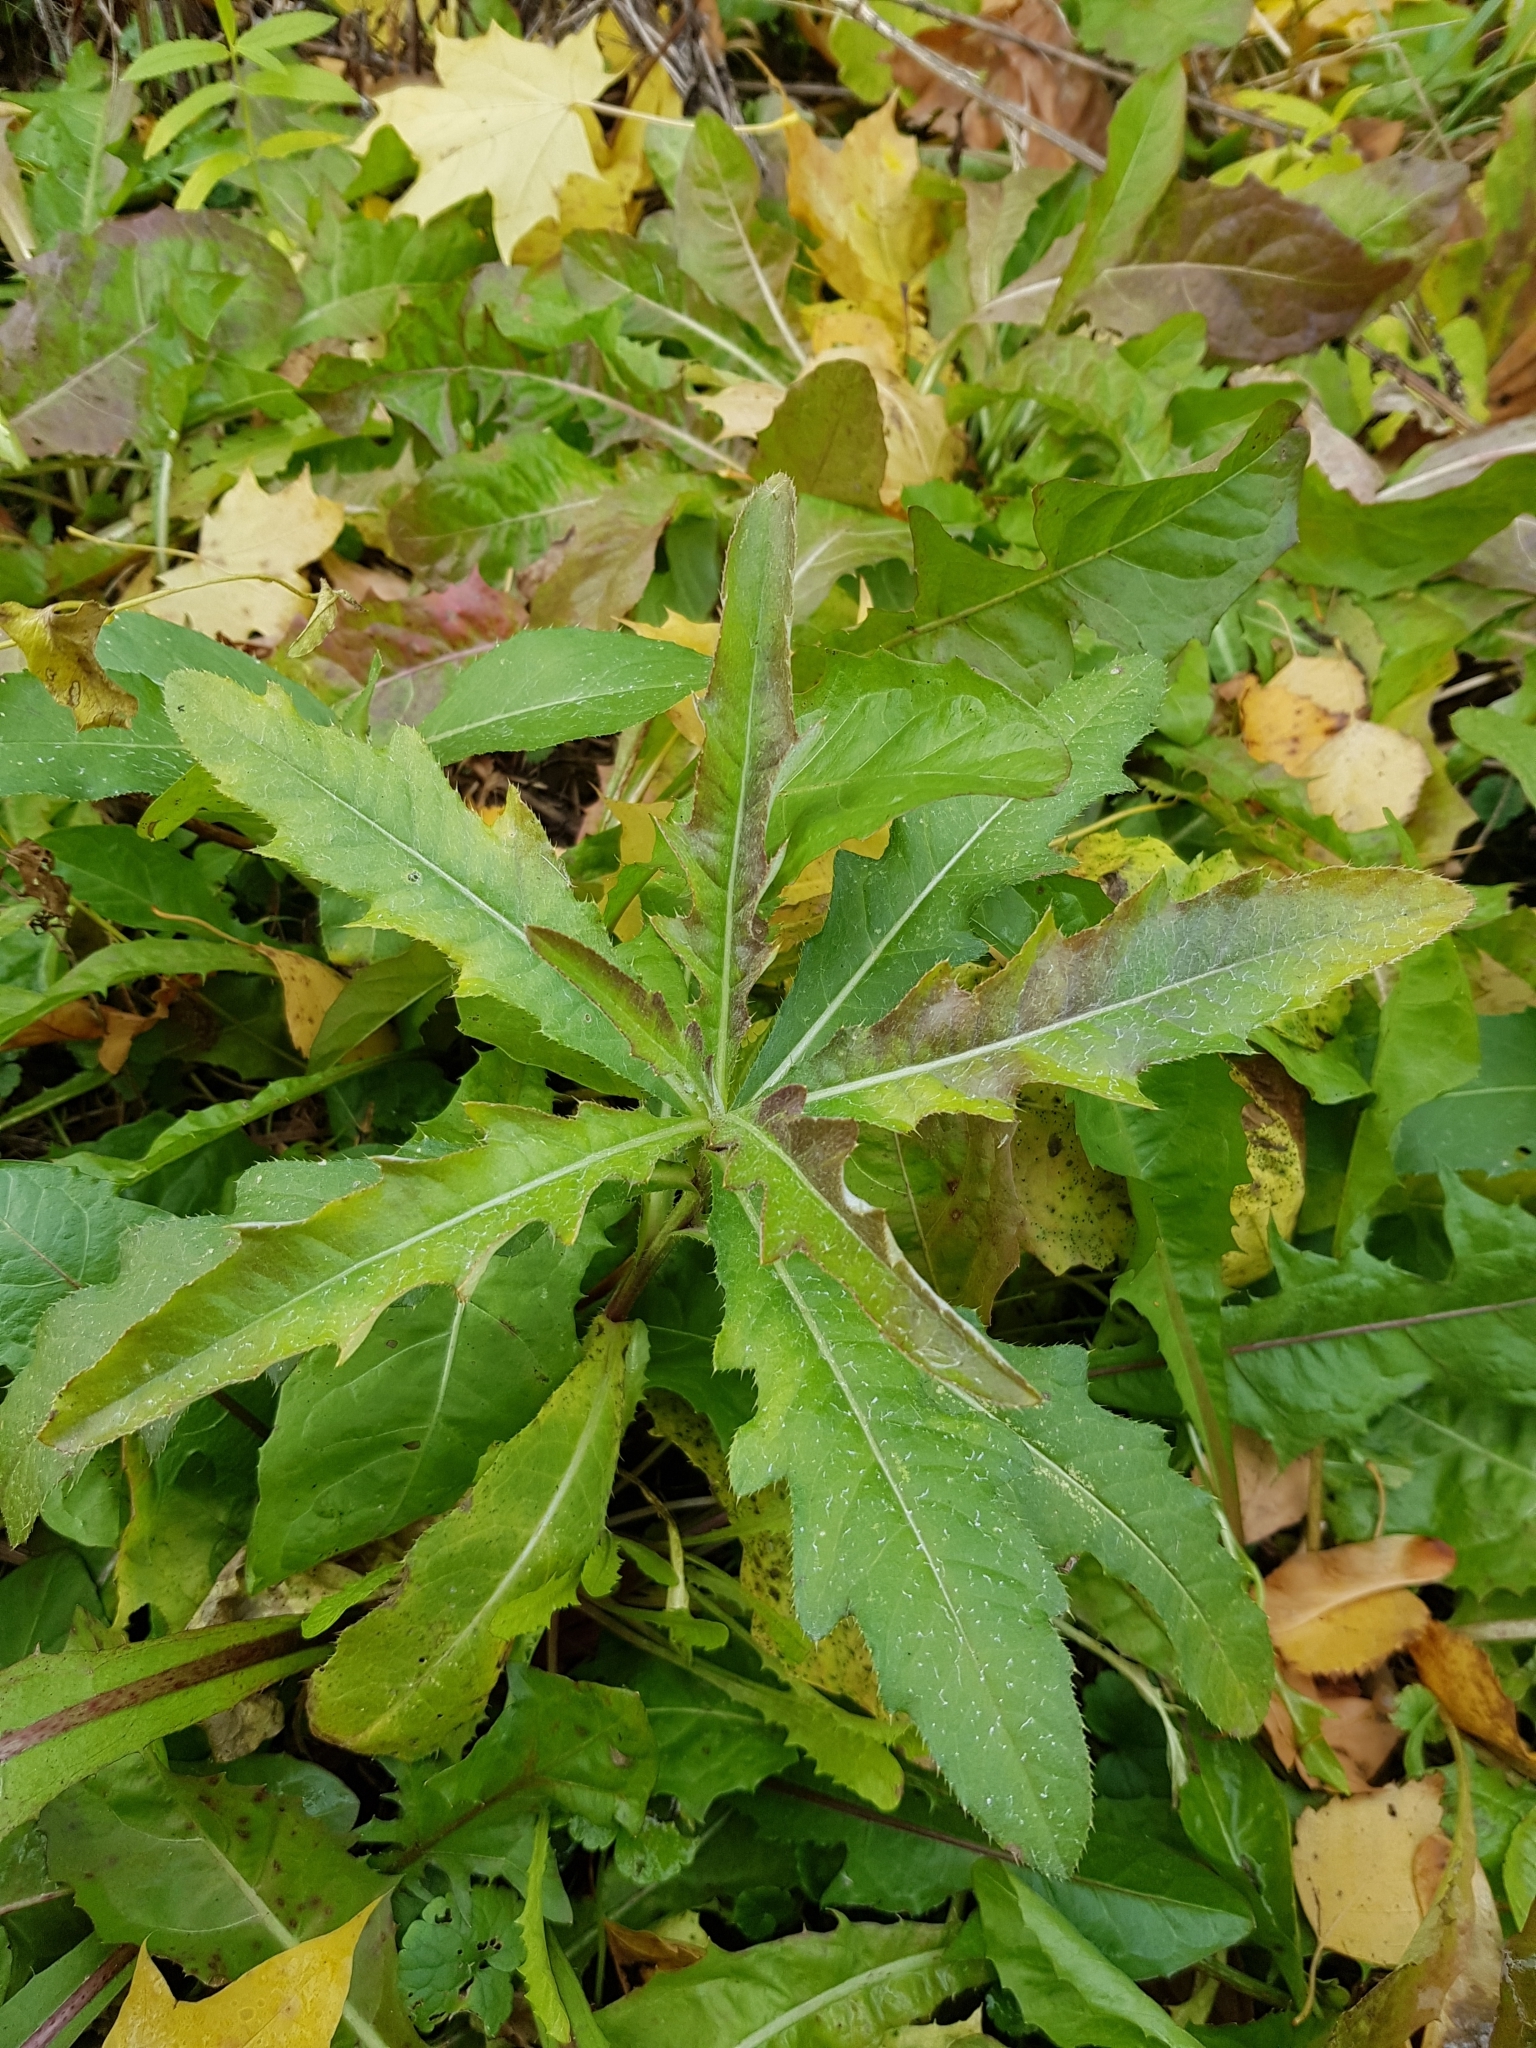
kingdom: Plantae
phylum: Tracheophyta
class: Magnoliopsida
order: Asterales
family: Asteraceae
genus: Cirsium
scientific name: Cirsium arvense
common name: Creeping thistle
